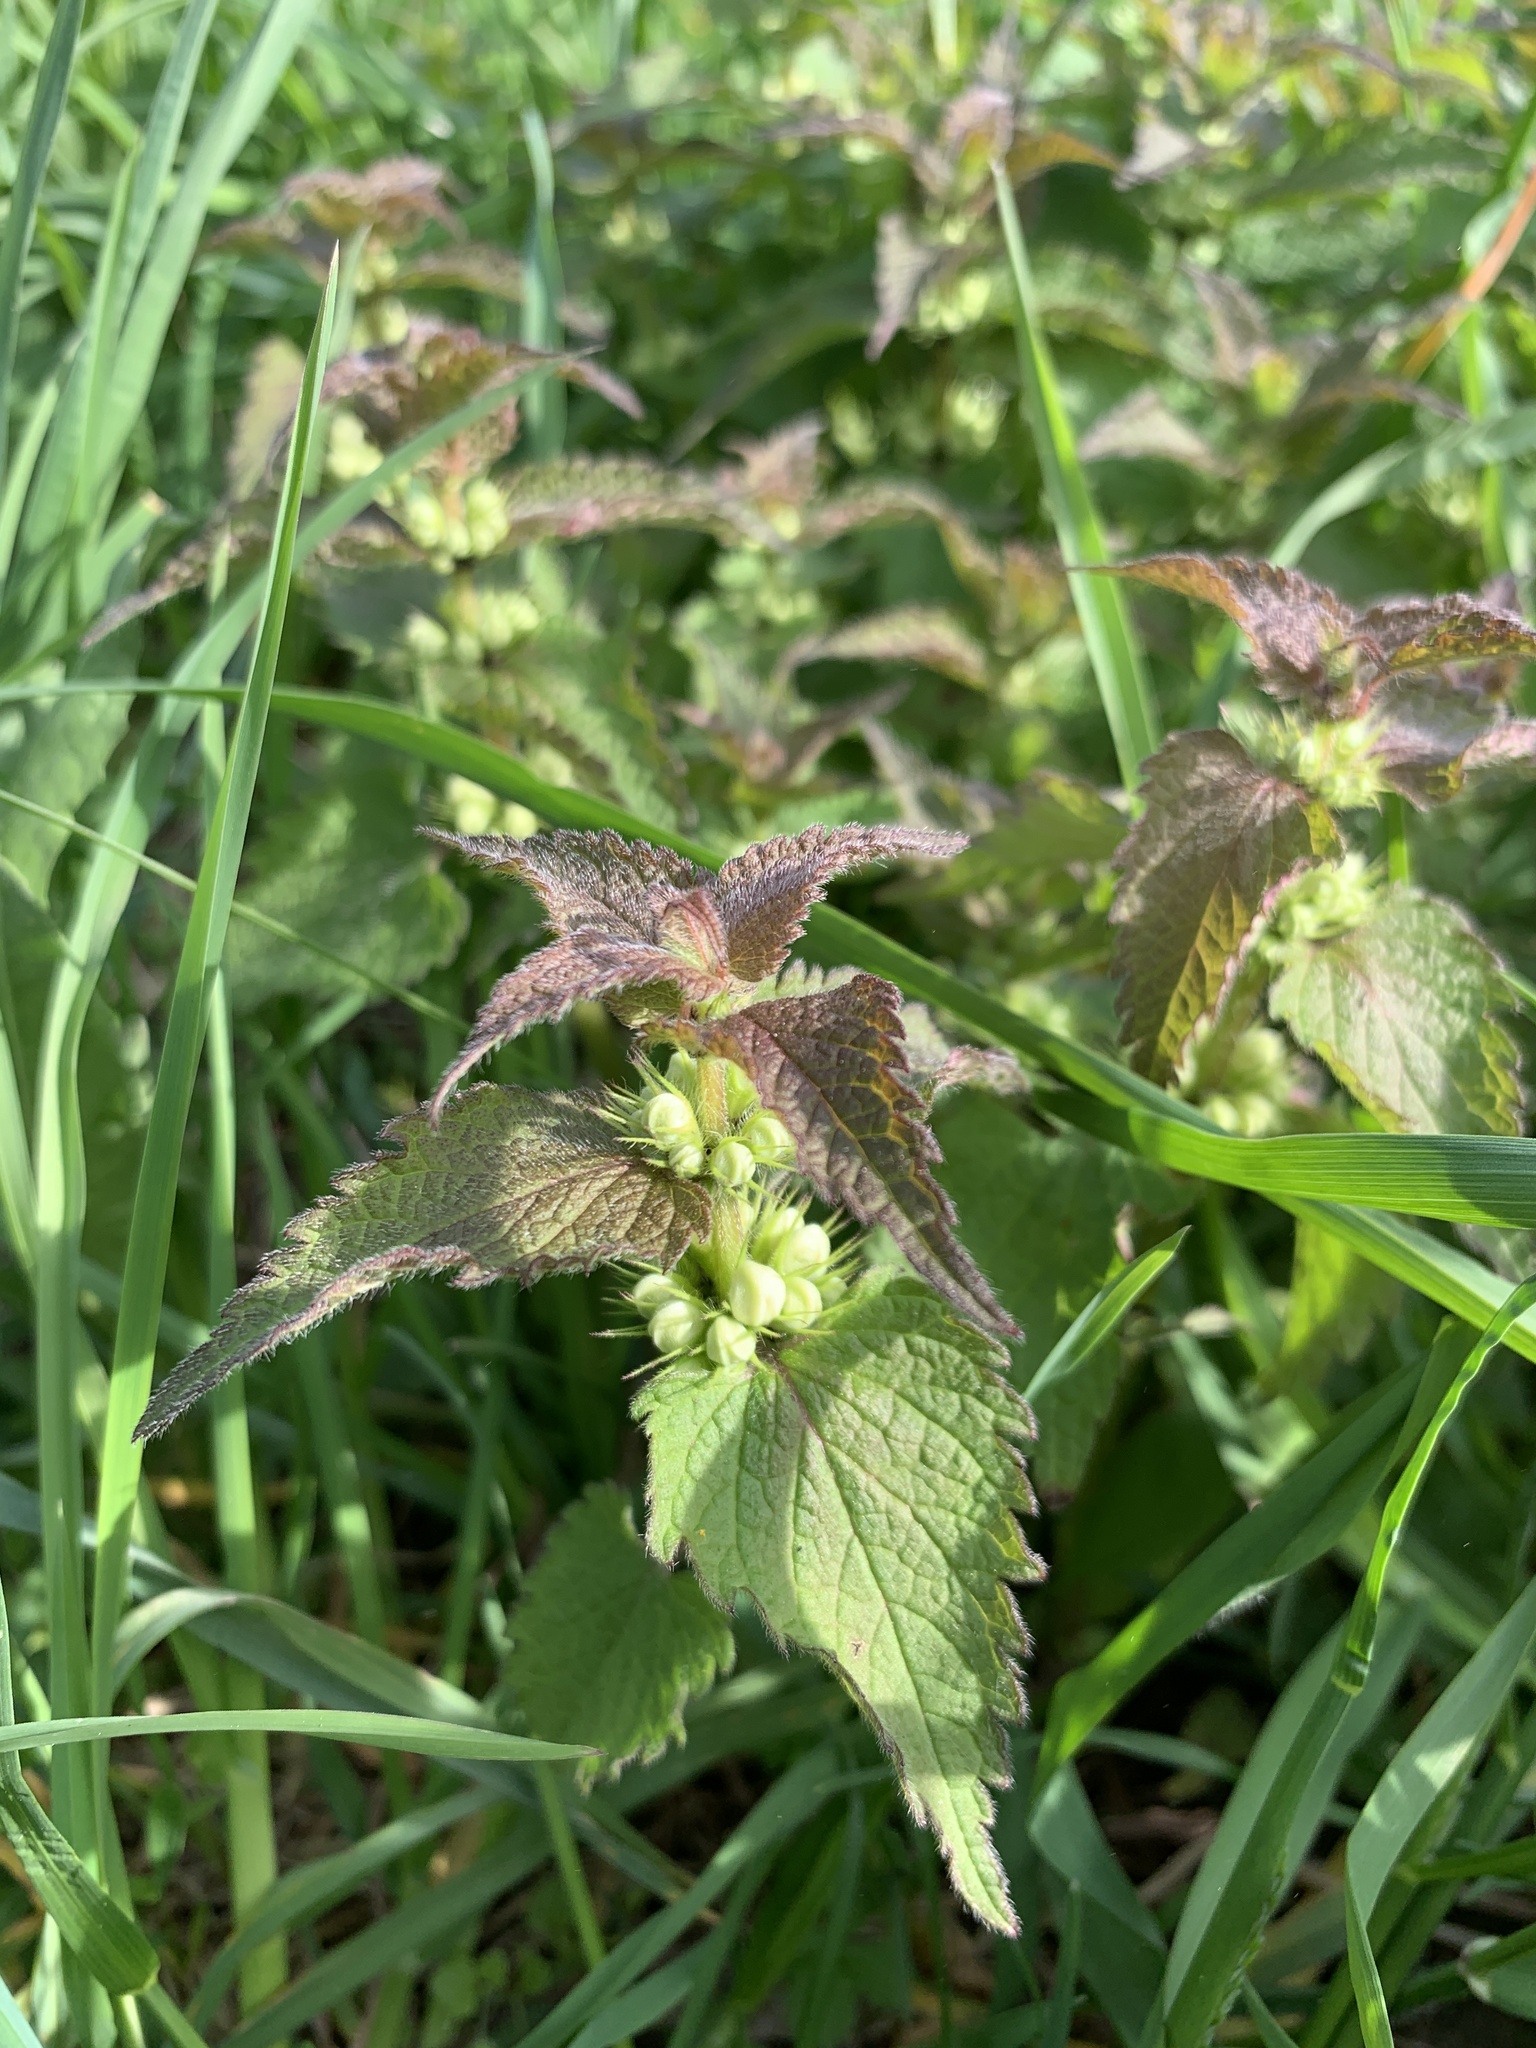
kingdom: Plantae
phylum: Tracheophyta
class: Magnoliopsida
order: Lamiales
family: Lamiaceae
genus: Lamium
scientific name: Lamium album
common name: White dead-nettle
